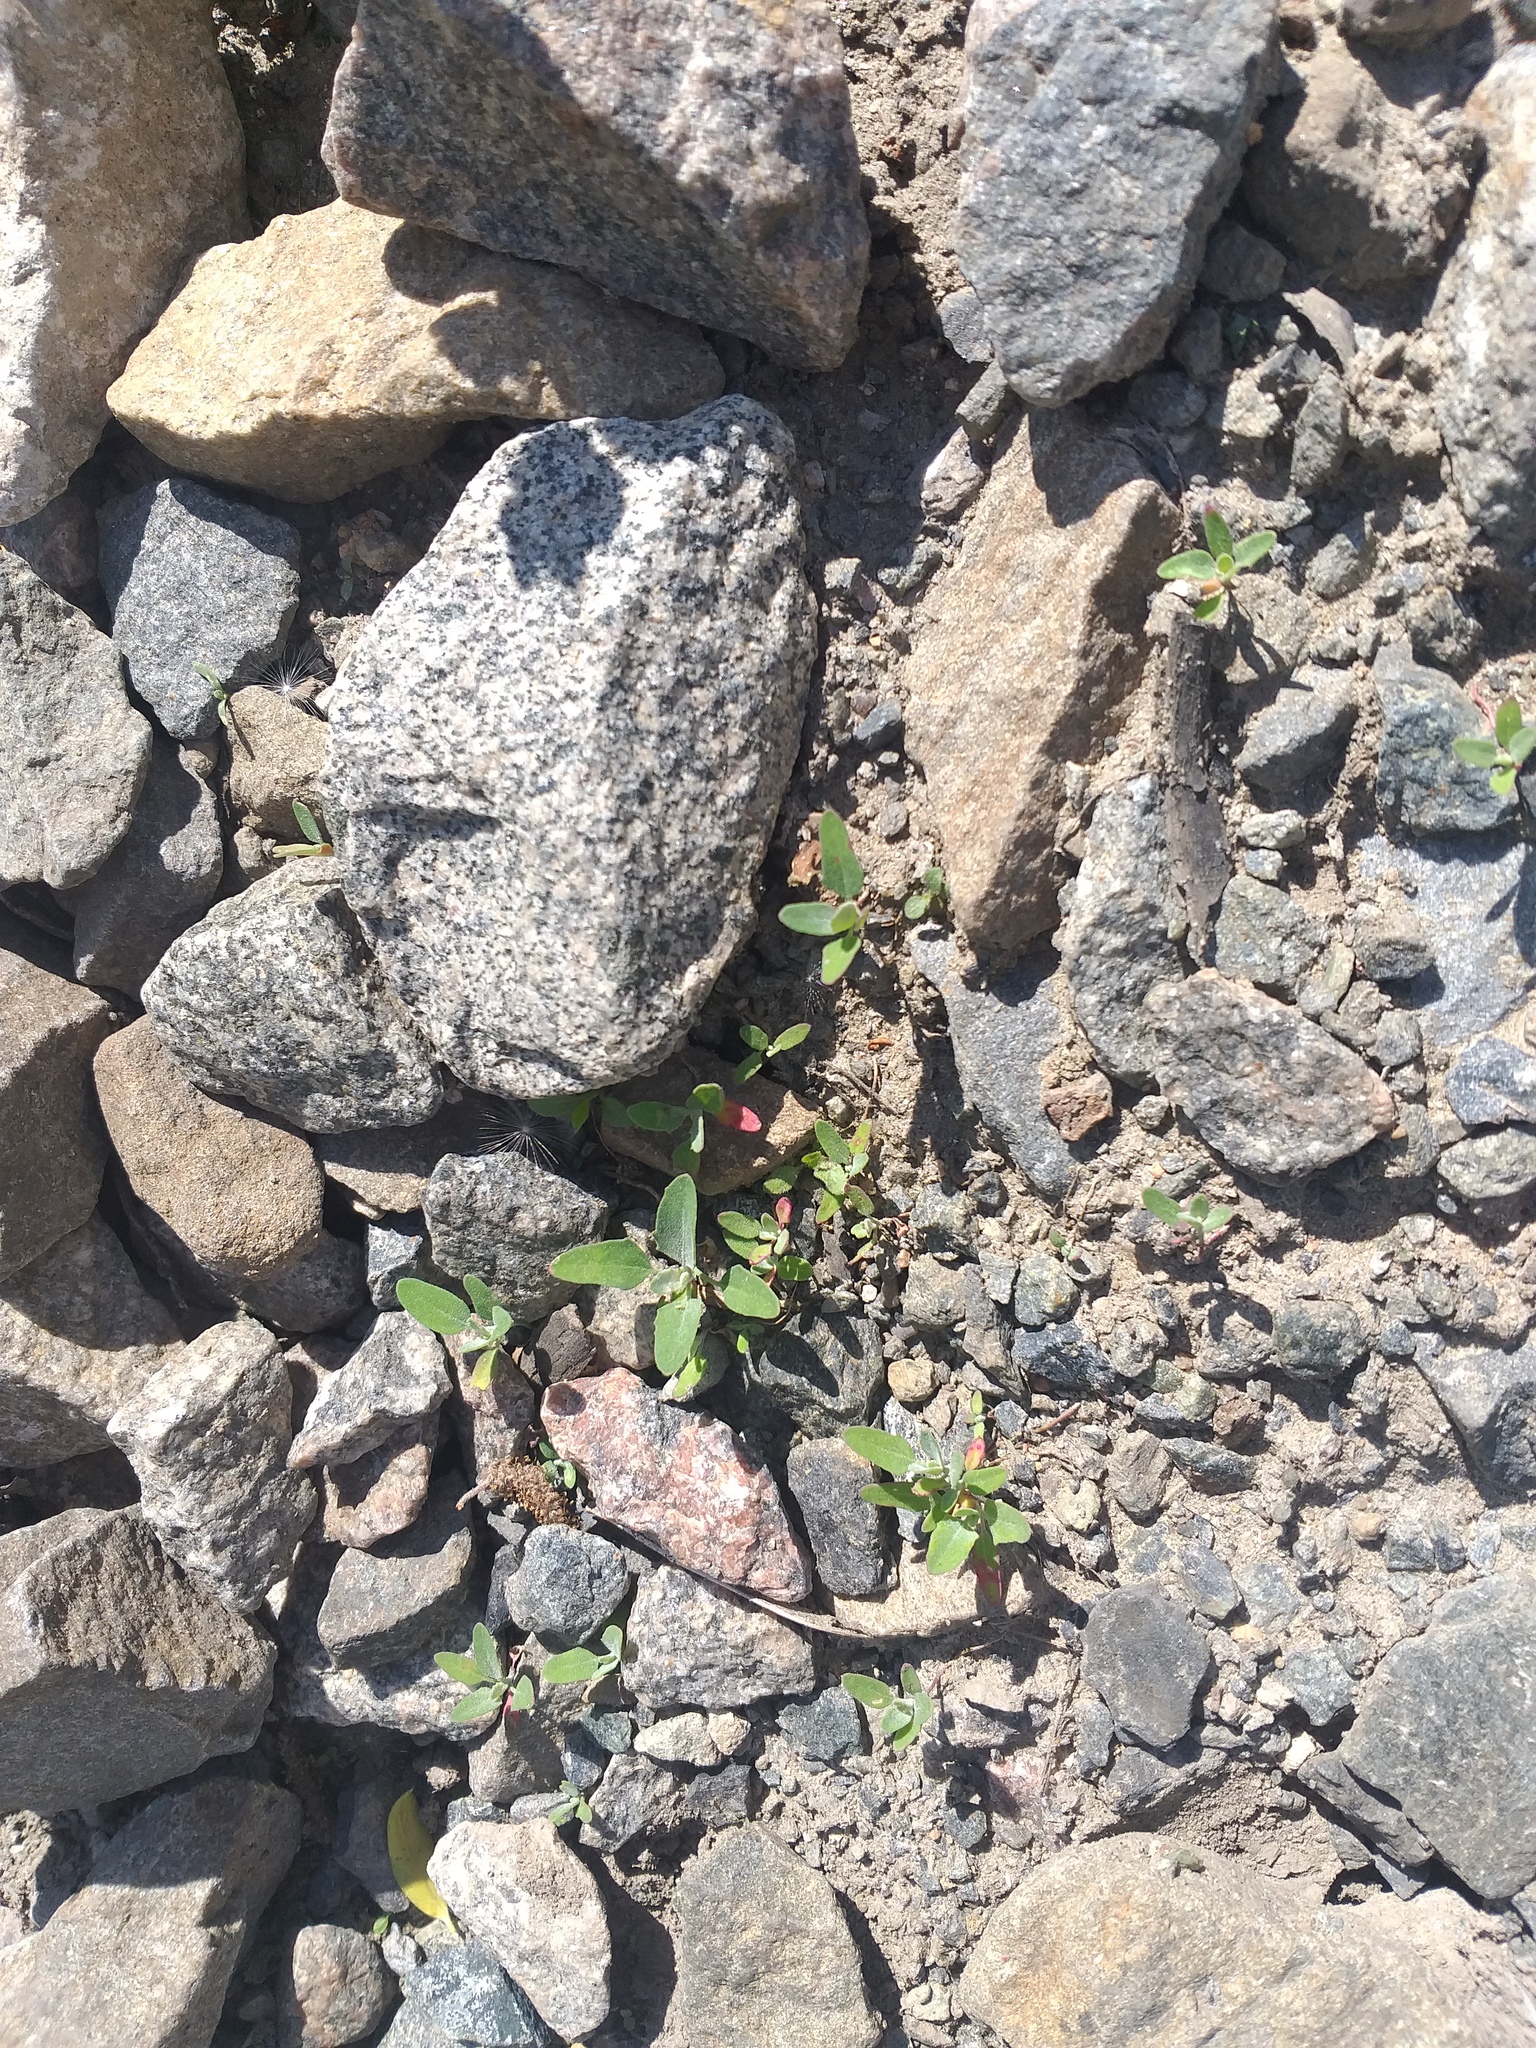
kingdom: Plantae
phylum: Tracheophyta
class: Magnoliopsida
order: Caryophyllales
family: Amaranthaceae
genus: Chenopodium
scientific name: Chenopodium album
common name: Fat-hen
